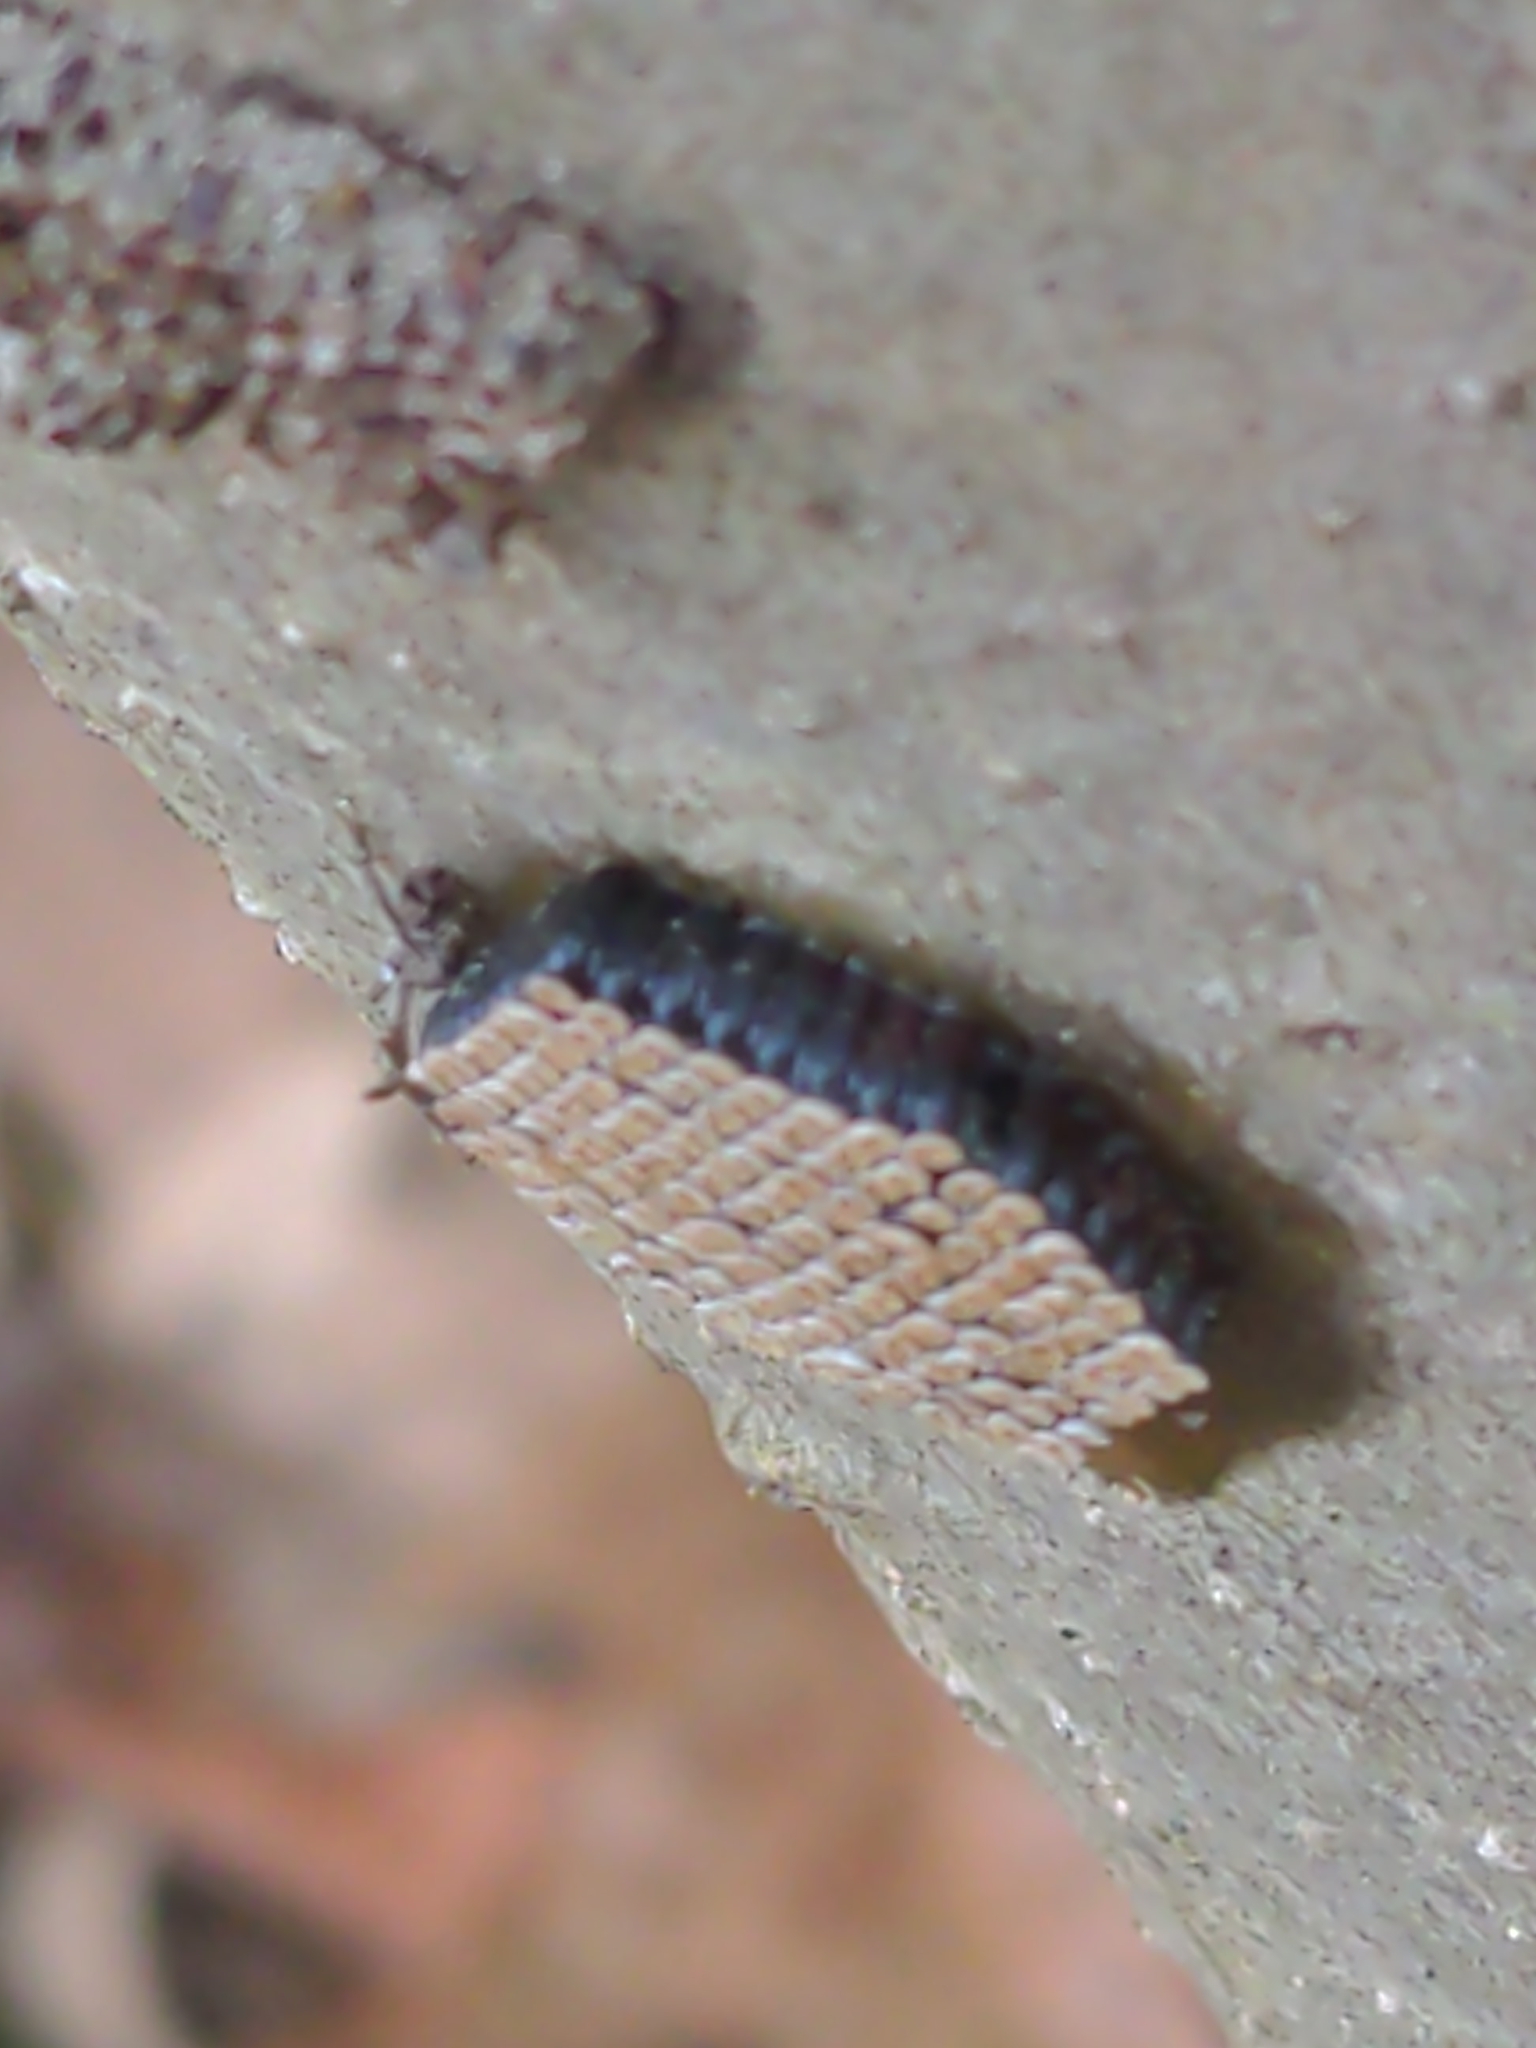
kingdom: Animalia
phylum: Arthropoda
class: Insecta
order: Hemiptera
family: Reduviidae
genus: Arilus
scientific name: Arilus cristatus
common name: North american wheel bug
